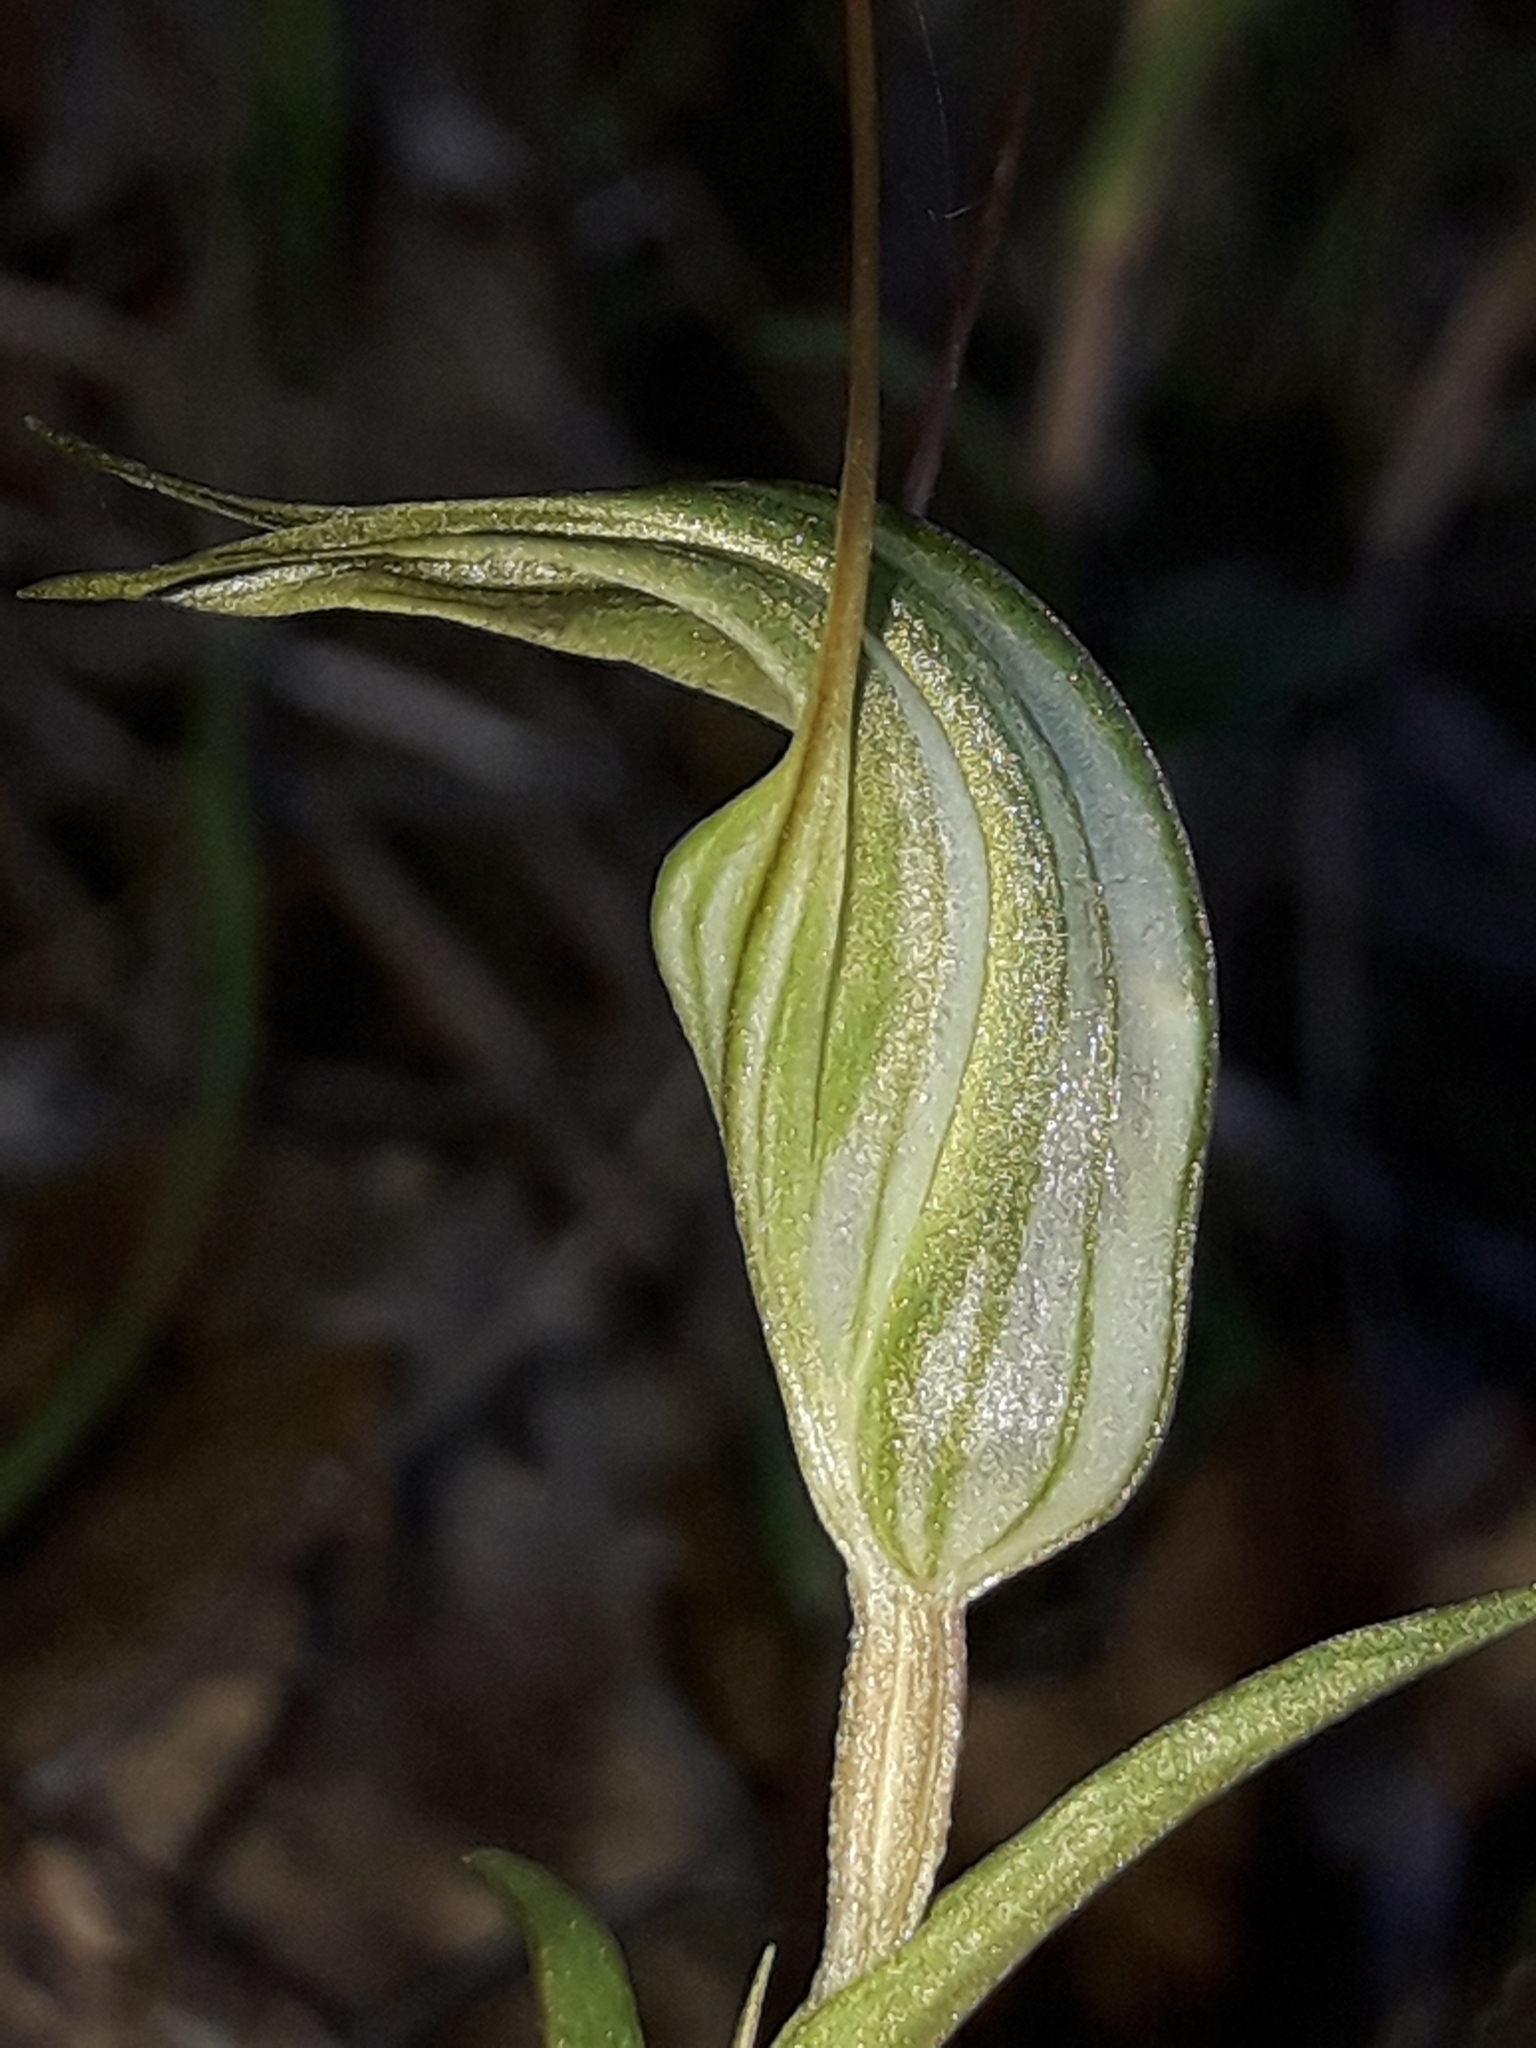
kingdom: Plantae
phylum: Tracheophyta
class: Liliopsida
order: Asparagales
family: Orchidaceae
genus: Pterostylis
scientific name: Pterostylis alobula
